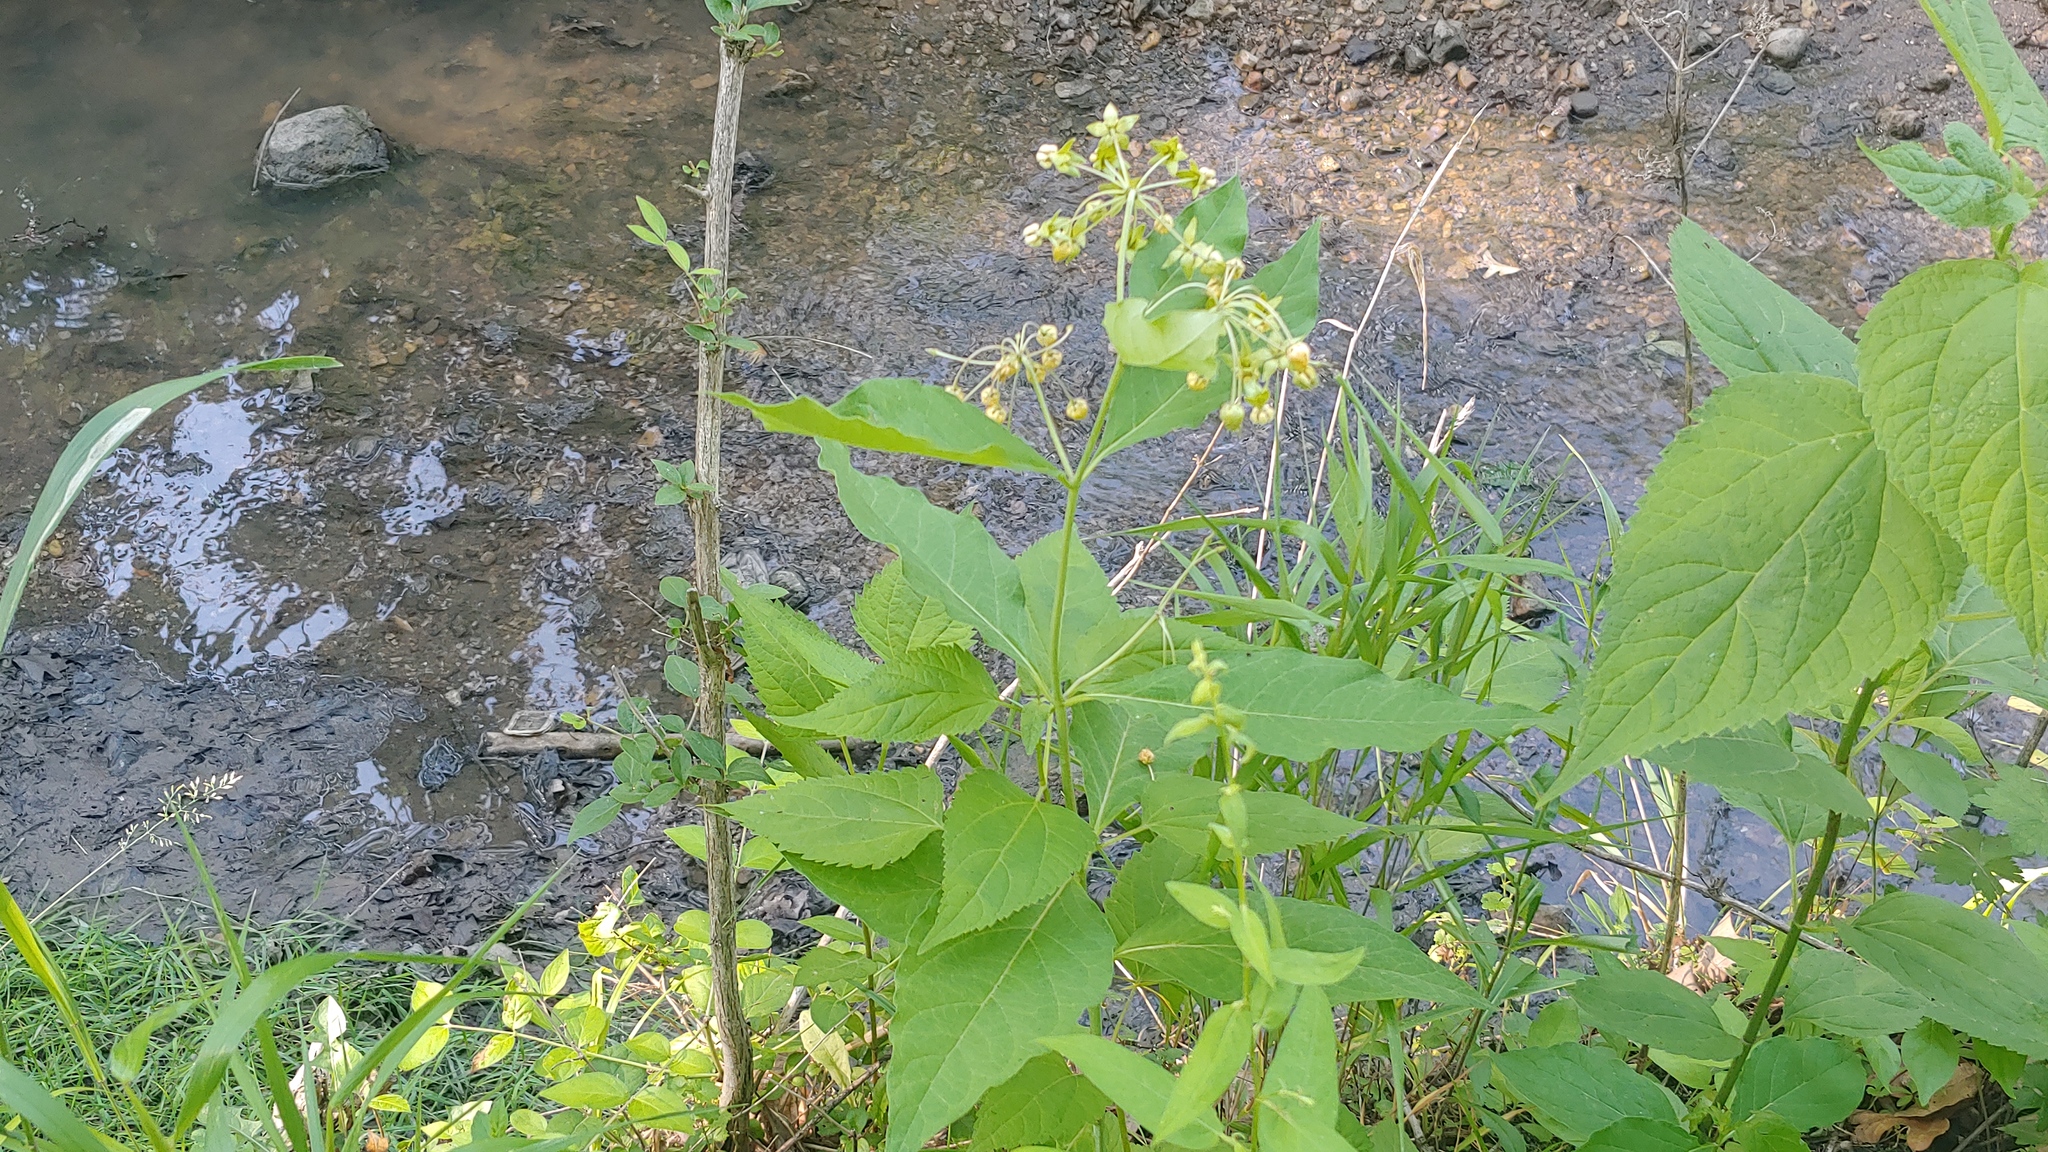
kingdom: Plantae
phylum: Tracheophyta
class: Magnoliopsida
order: Gentianales
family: Apocynaceae
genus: Asclepias
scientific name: Asclepias exaltata
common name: Poke milkweed
